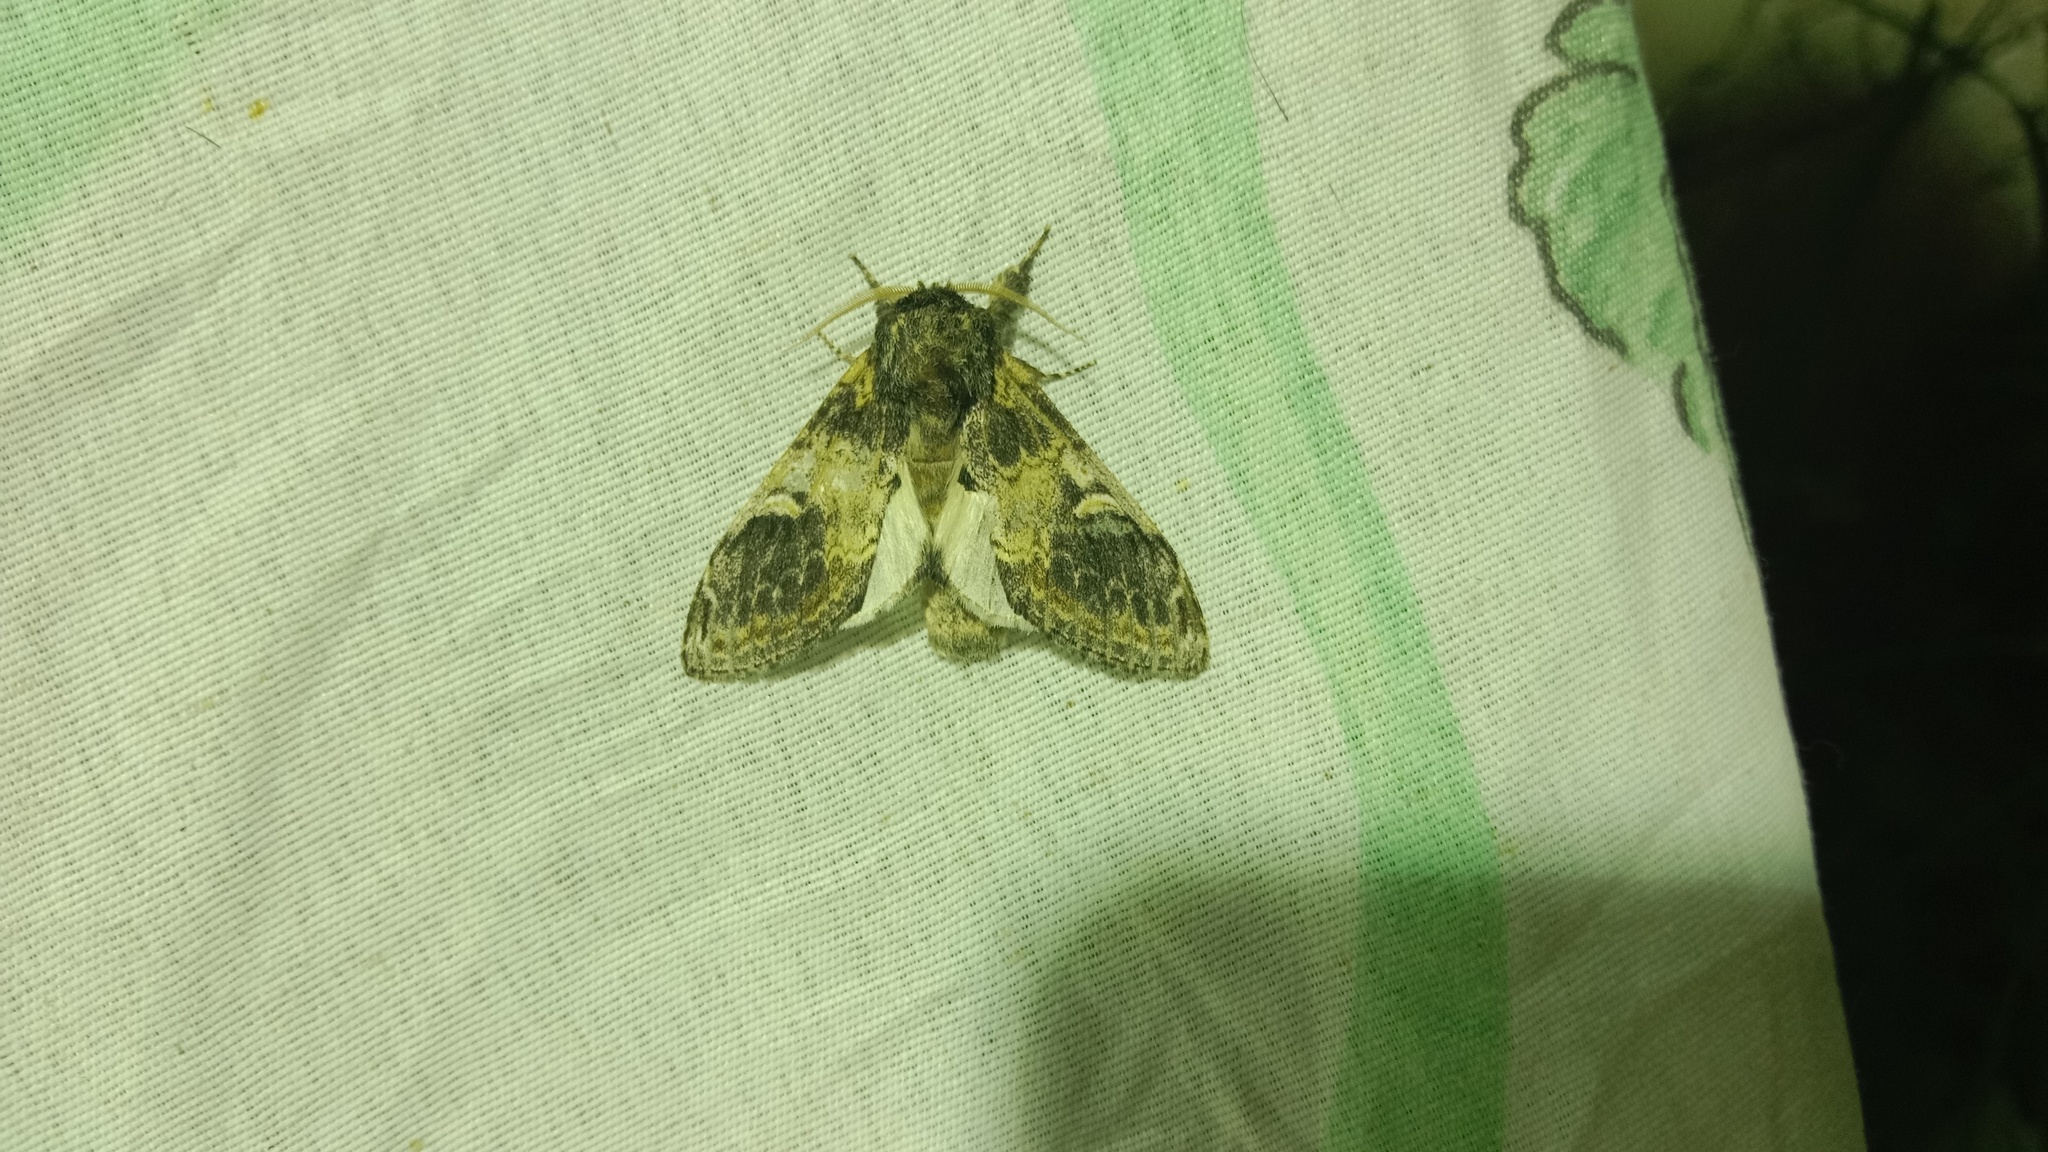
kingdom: Animalia
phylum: Arthropoda
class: Insecta
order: Lepidoptera
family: Notodontidae
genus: Notodonta
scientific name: Notodonta tritophus
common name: Three-humped prominent
